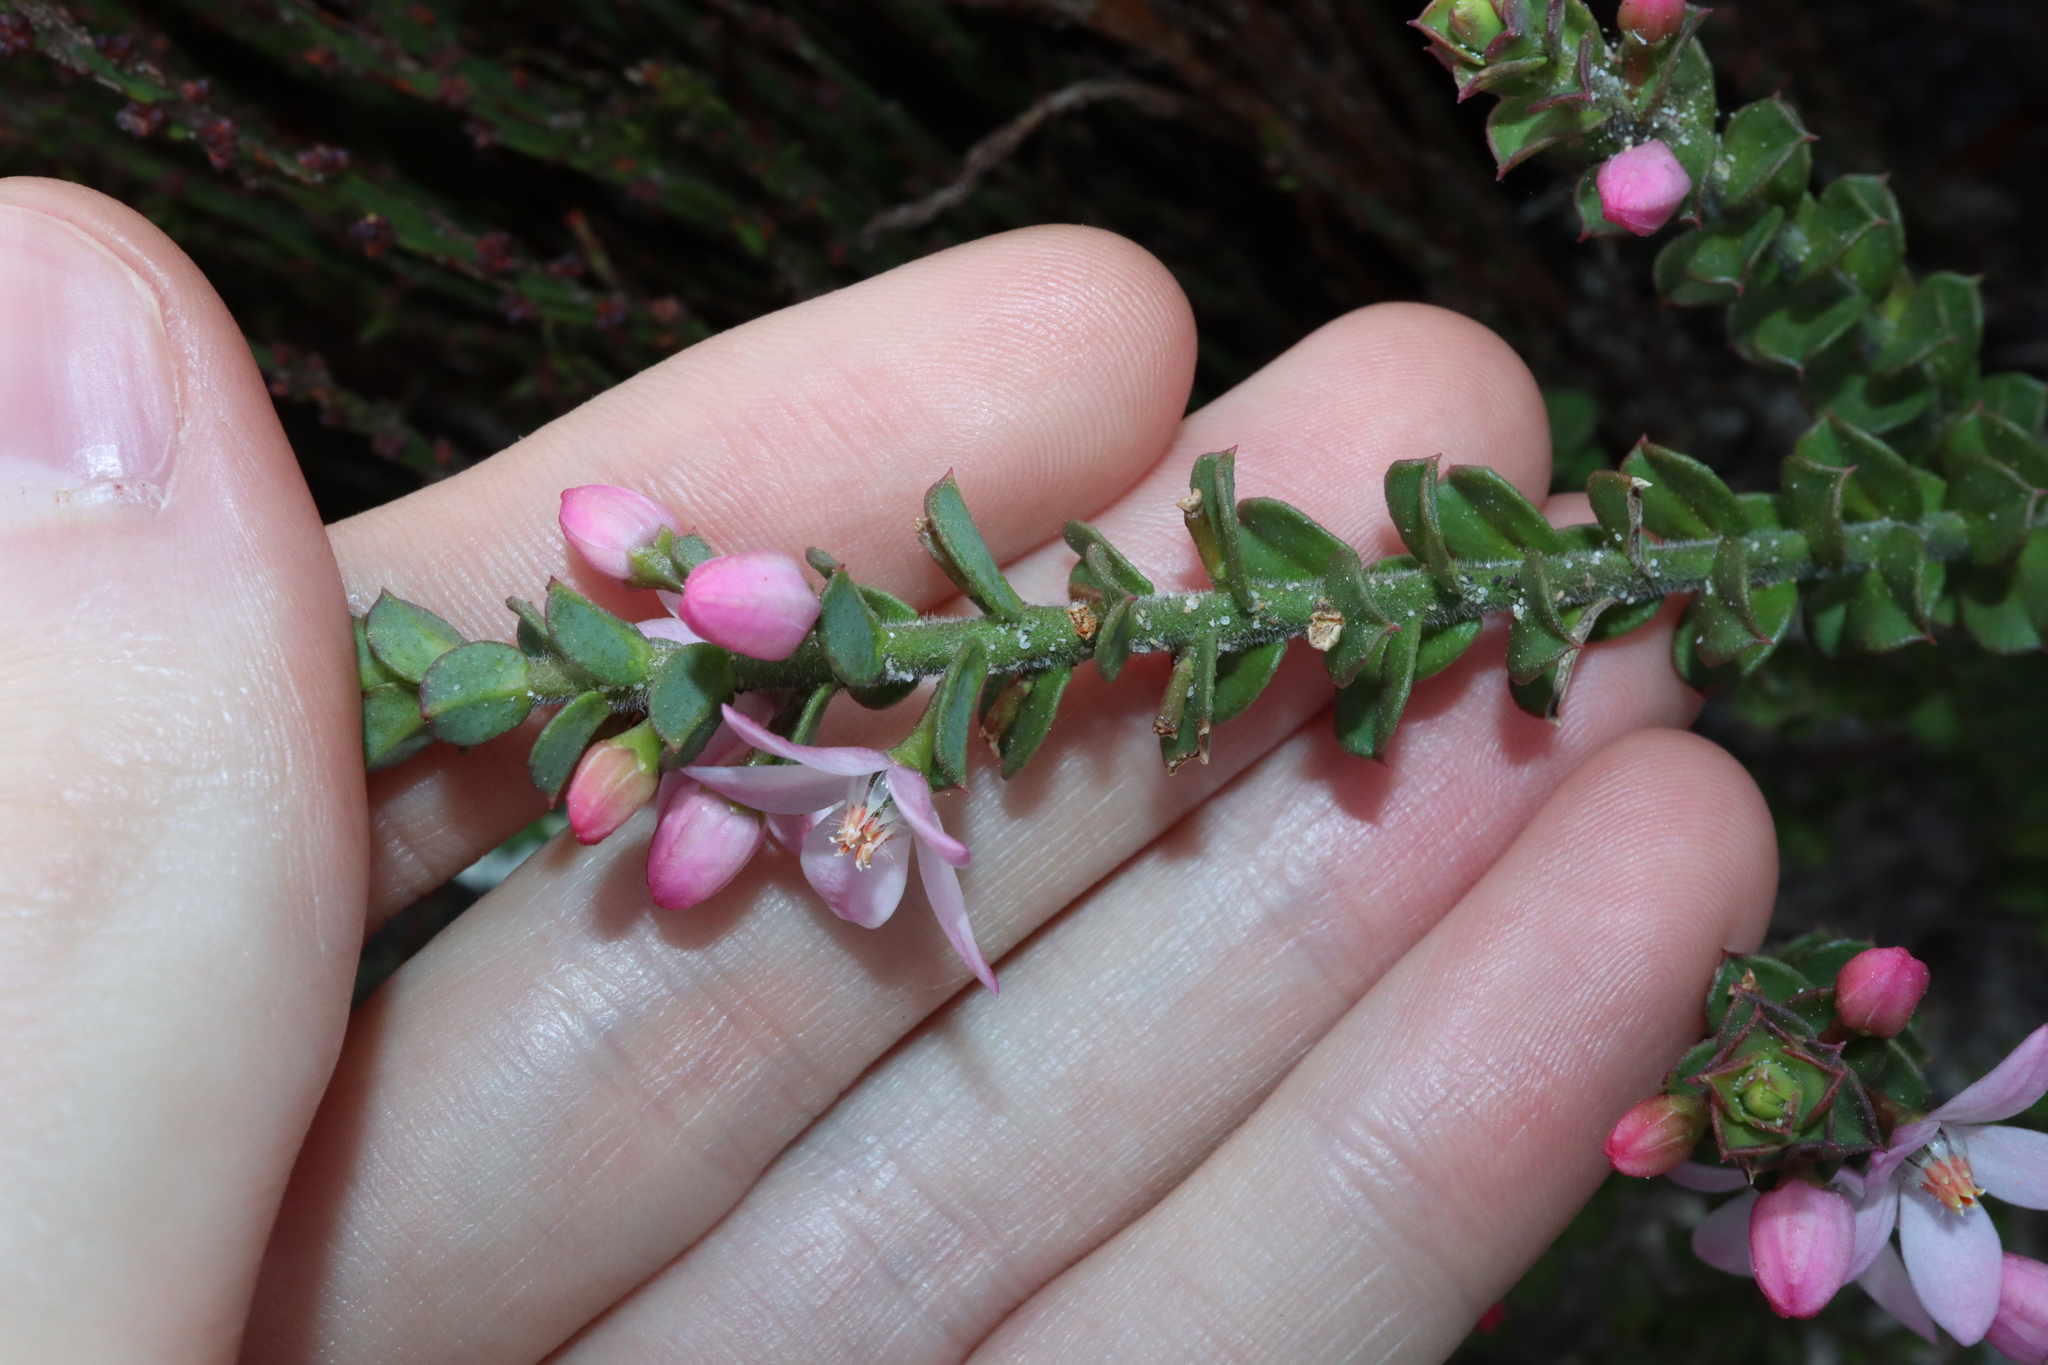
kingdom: Plantae
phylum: Tracheophyta
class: Magnoliopsida
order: Sapindales
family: Rutaceae
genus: Philotheca
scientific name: Philotheca buxifolia
